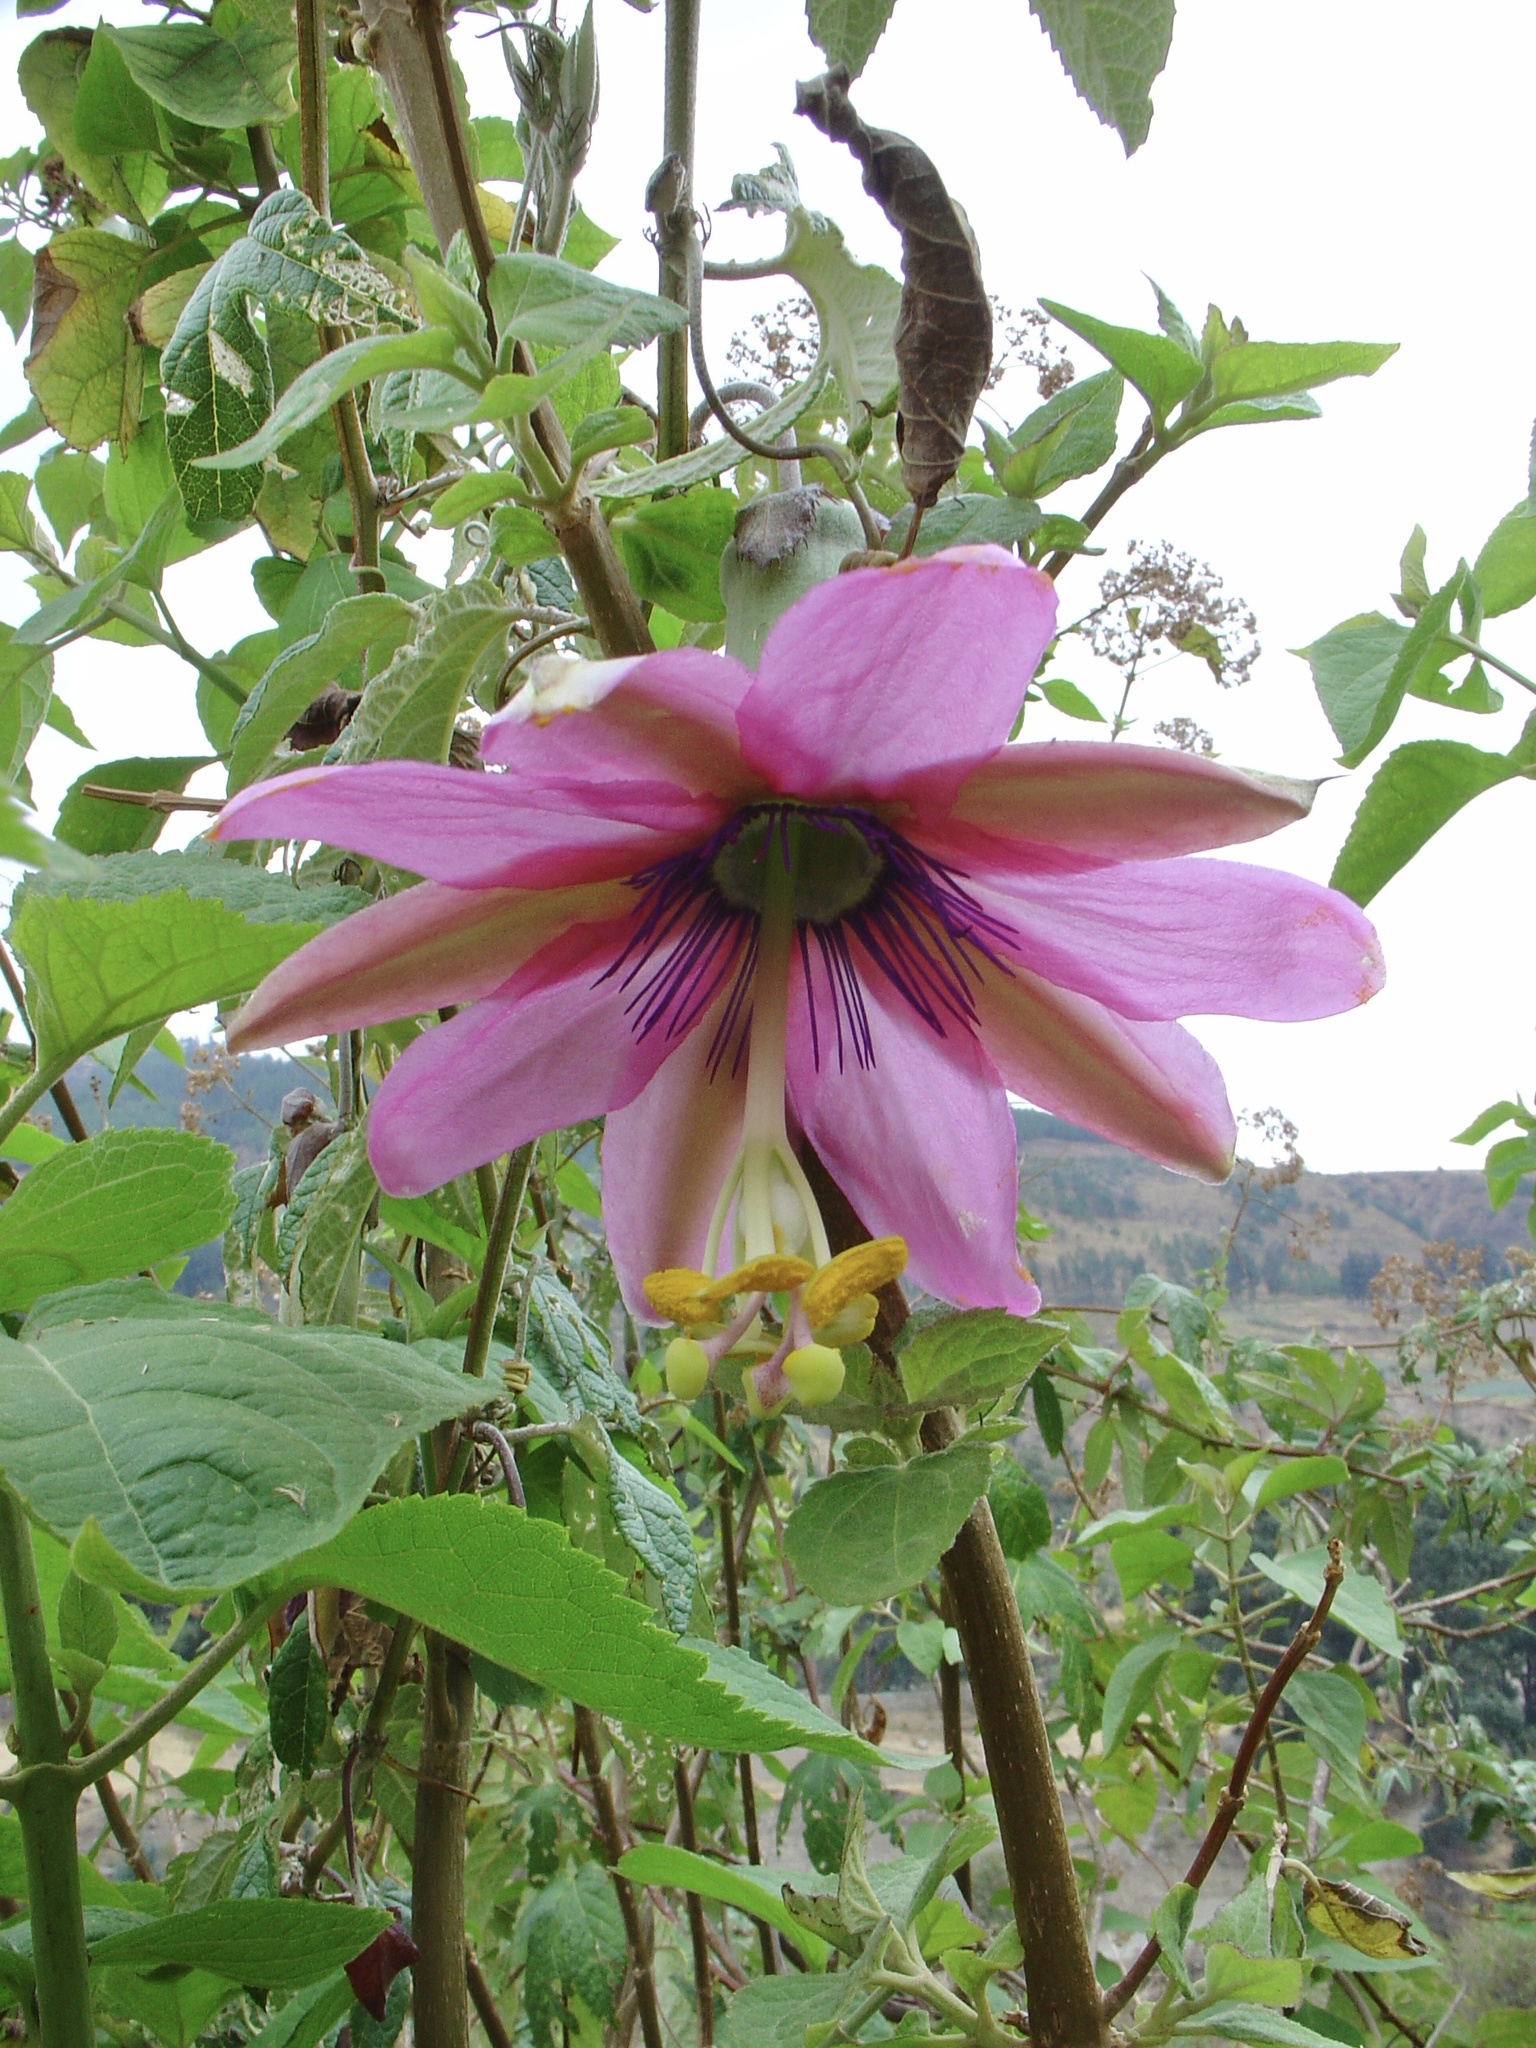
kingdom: Plantae
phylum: Tracheophyta
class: Magnoliopsida
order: Malpighiales
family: Passifloraceae
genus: Passiflora
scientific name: Passiflora pinnatistipula
